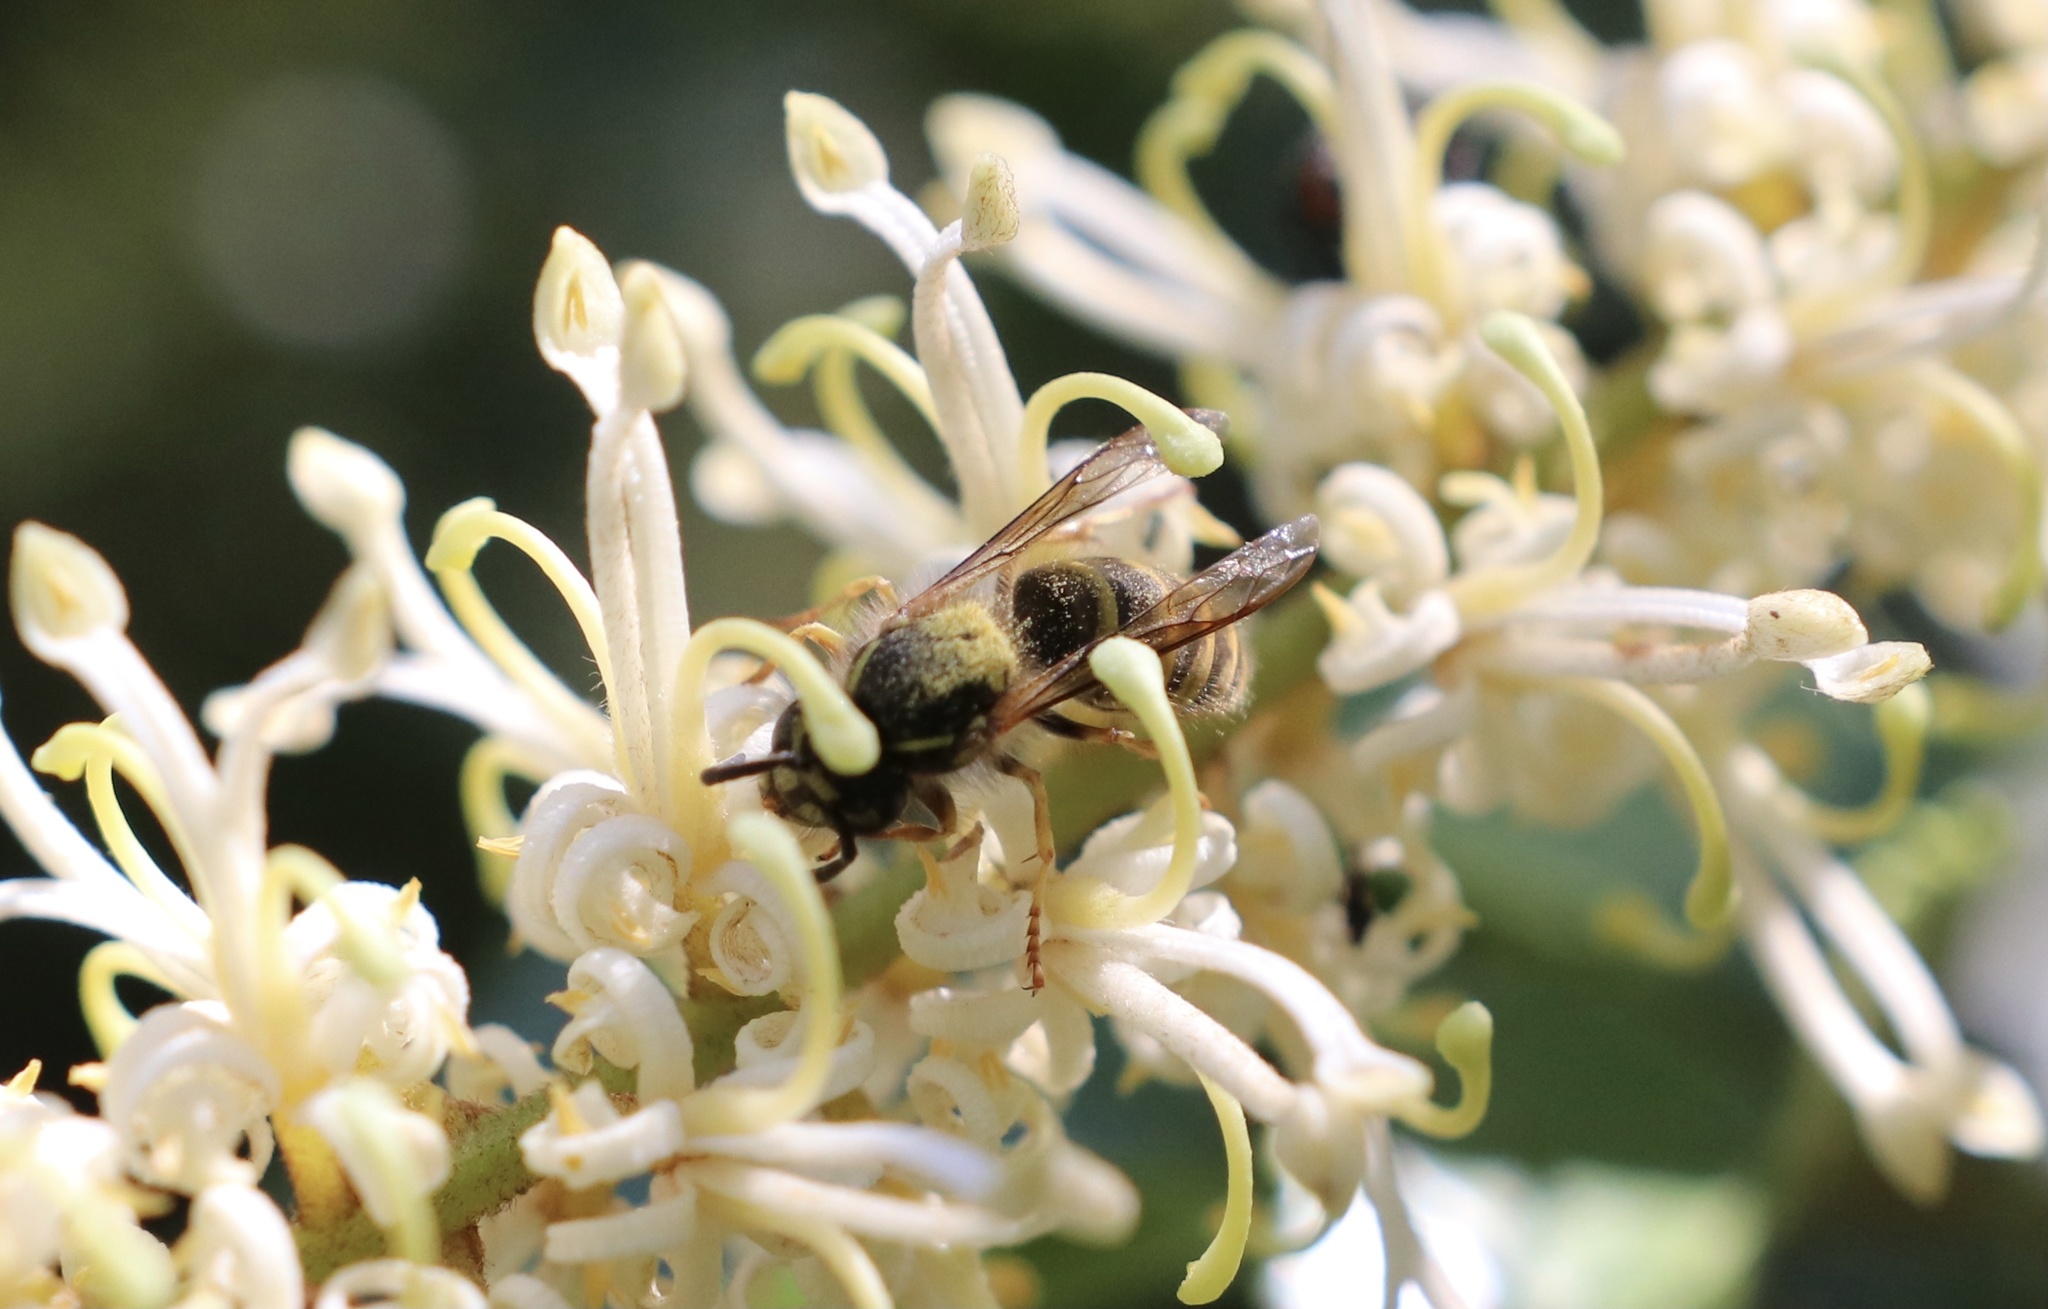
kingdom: Animalia
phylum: Arthropoda
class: Insecta
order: Hymenoptera
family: Vespidae
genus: Vespula
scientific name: Vespula vulgaris
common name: Common wasp
